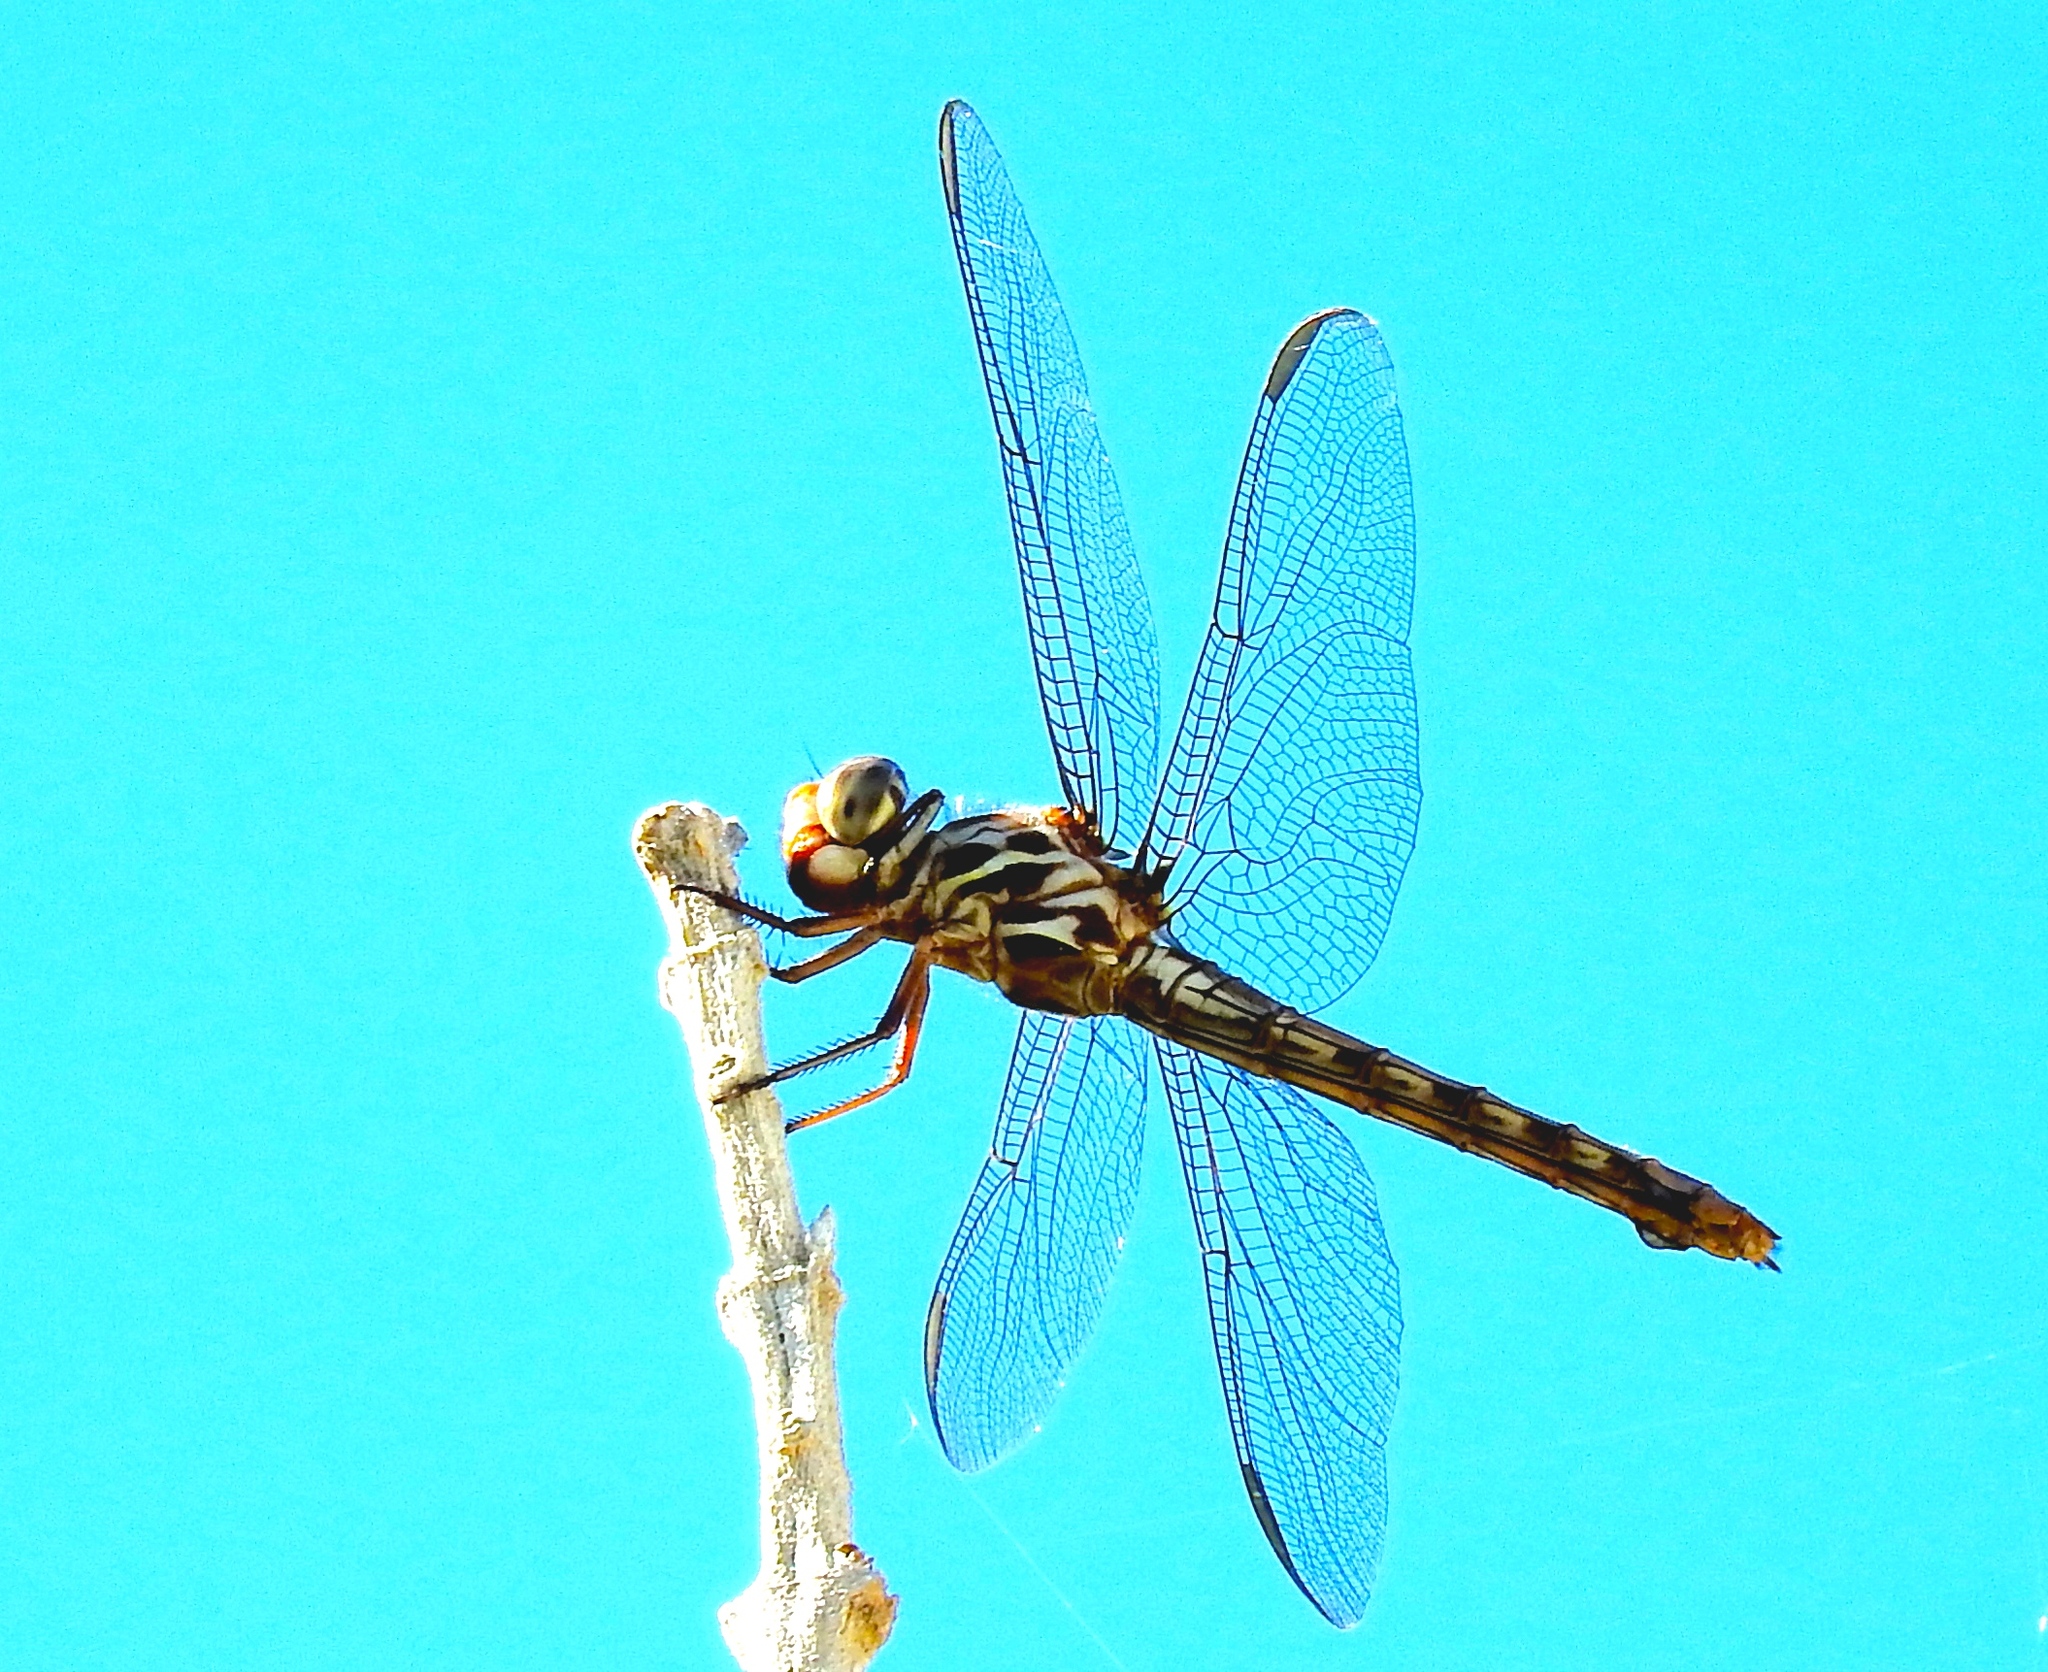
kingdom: Animalia
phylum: Arthropoda
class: Insecta
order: Odonata
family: Libellulidae
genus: Orthemis
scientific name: Orthemis
